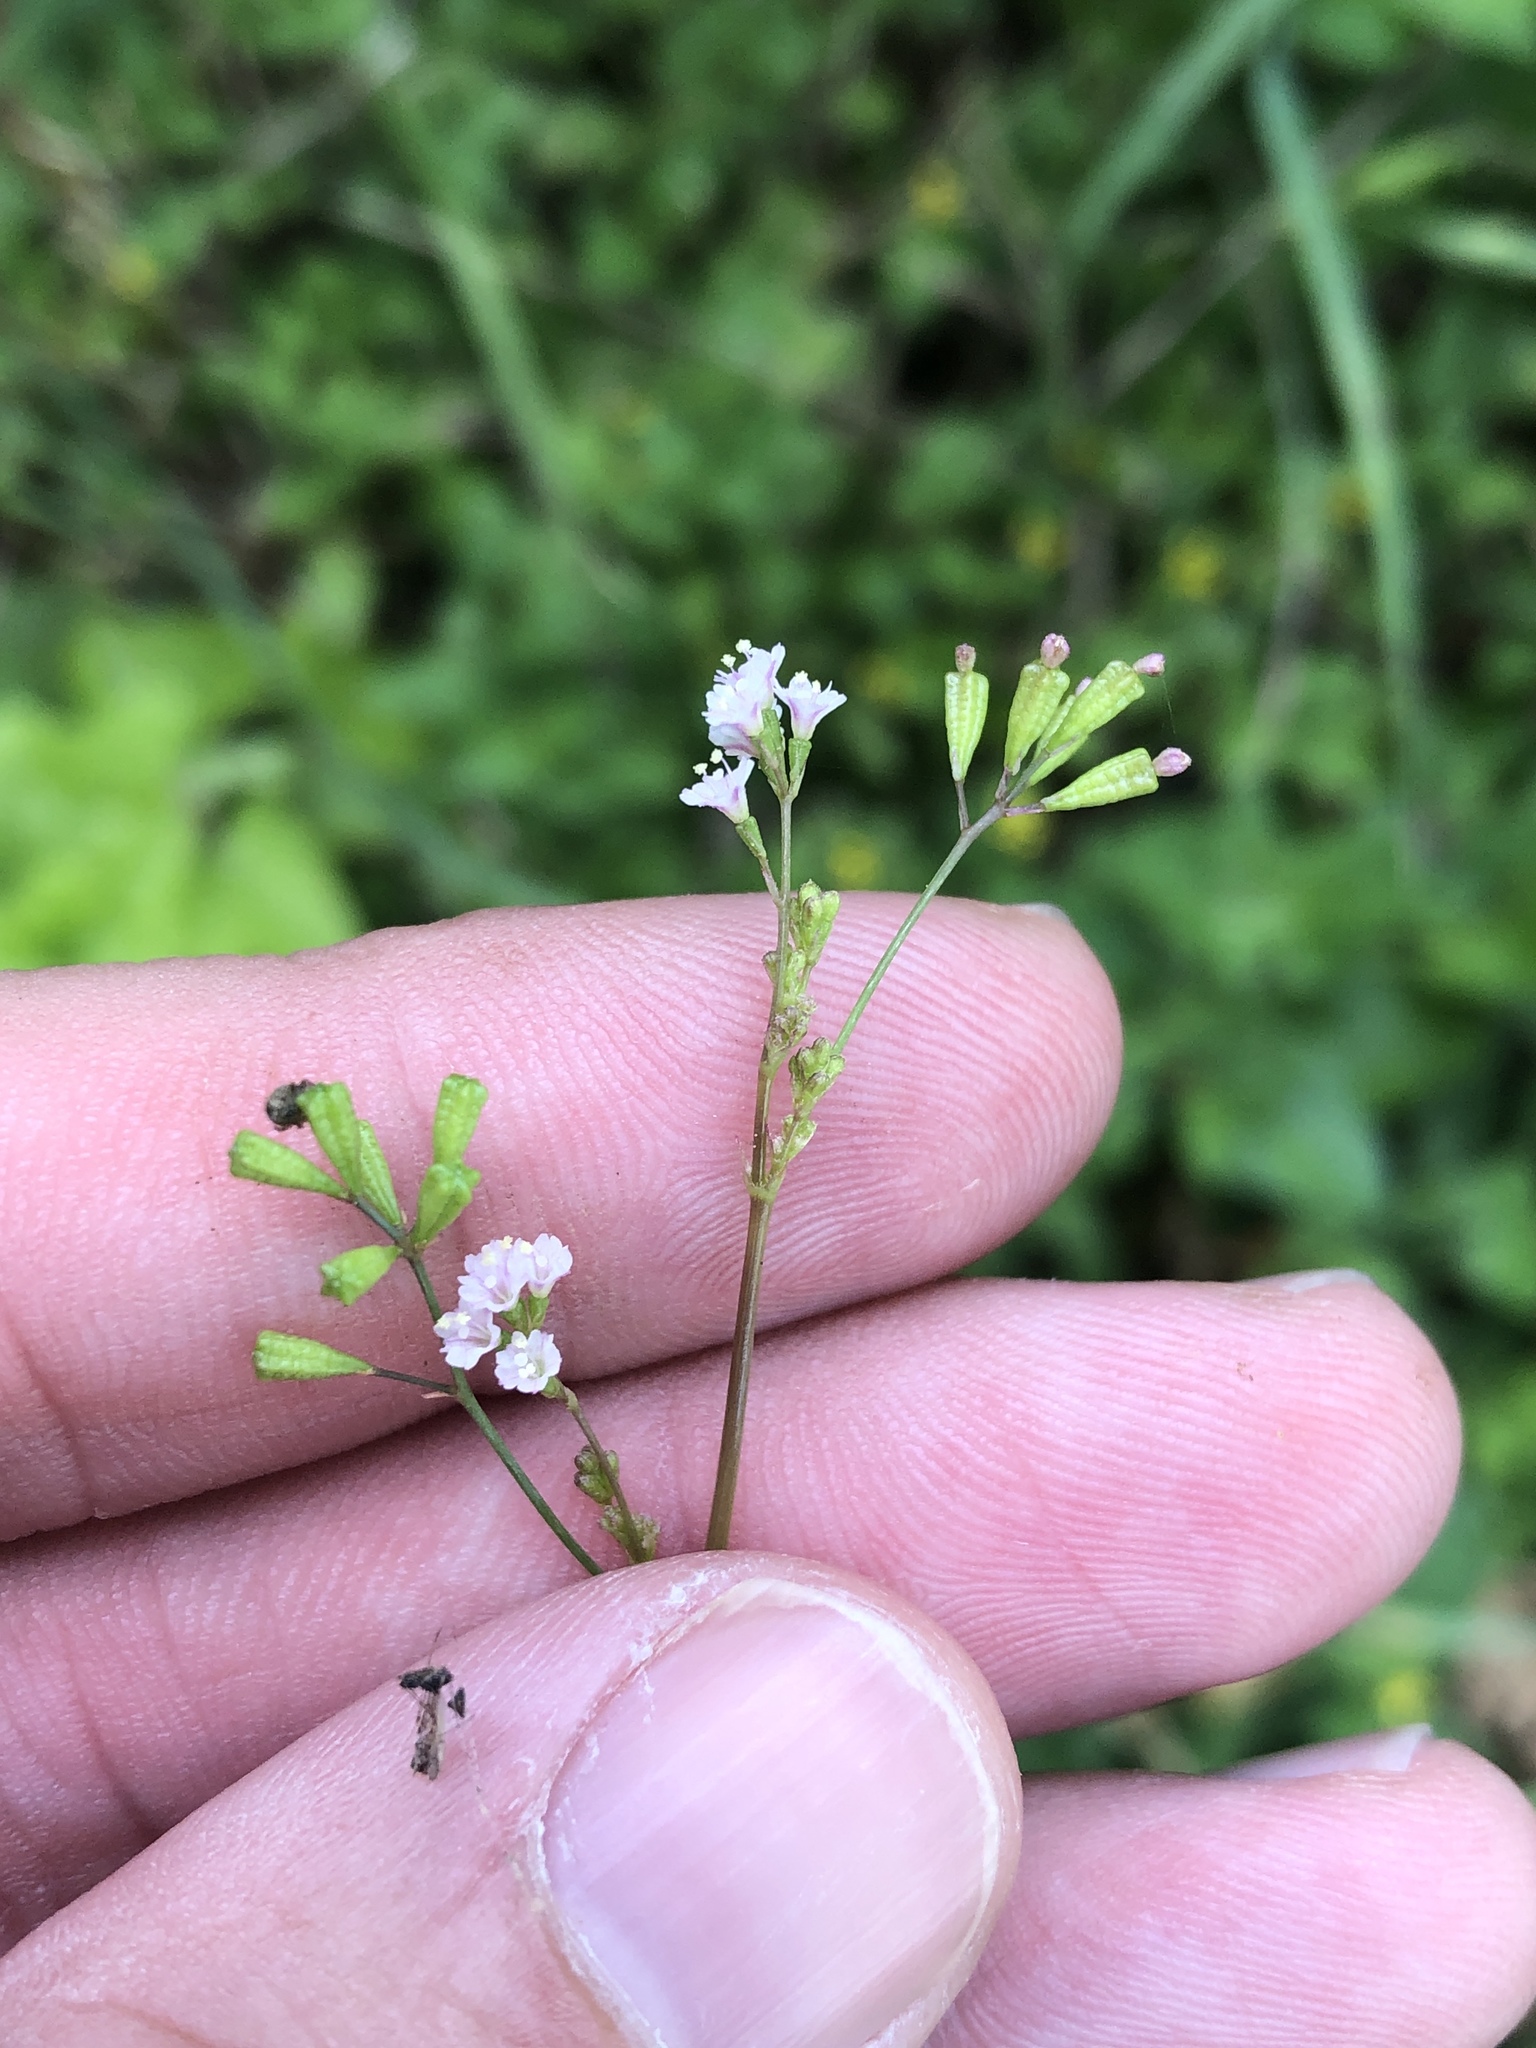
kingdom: Plantae
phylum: Tracheophyta
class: Magnoliopsida
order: Caryophyllales
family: Nyctaginaceae
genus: Boerhavia
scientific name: Boerhavia erecta
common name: Erect spiderling
